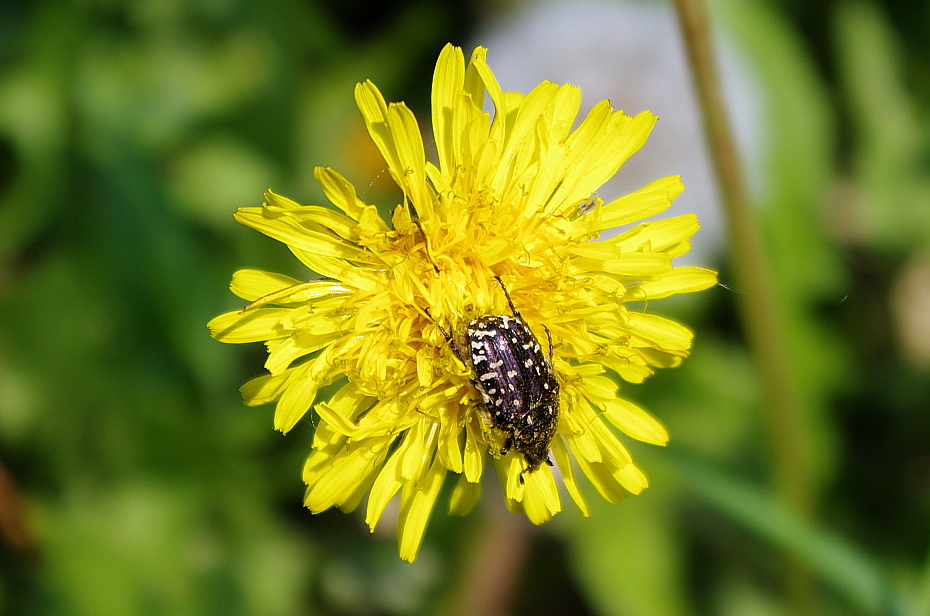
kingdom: Plantae
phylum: Tracheophyta
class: Magnoliopsida
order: Asterales
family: Asteraceae
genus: Taraxacum
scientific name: Taraxacum officinale
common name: Common dandelion
